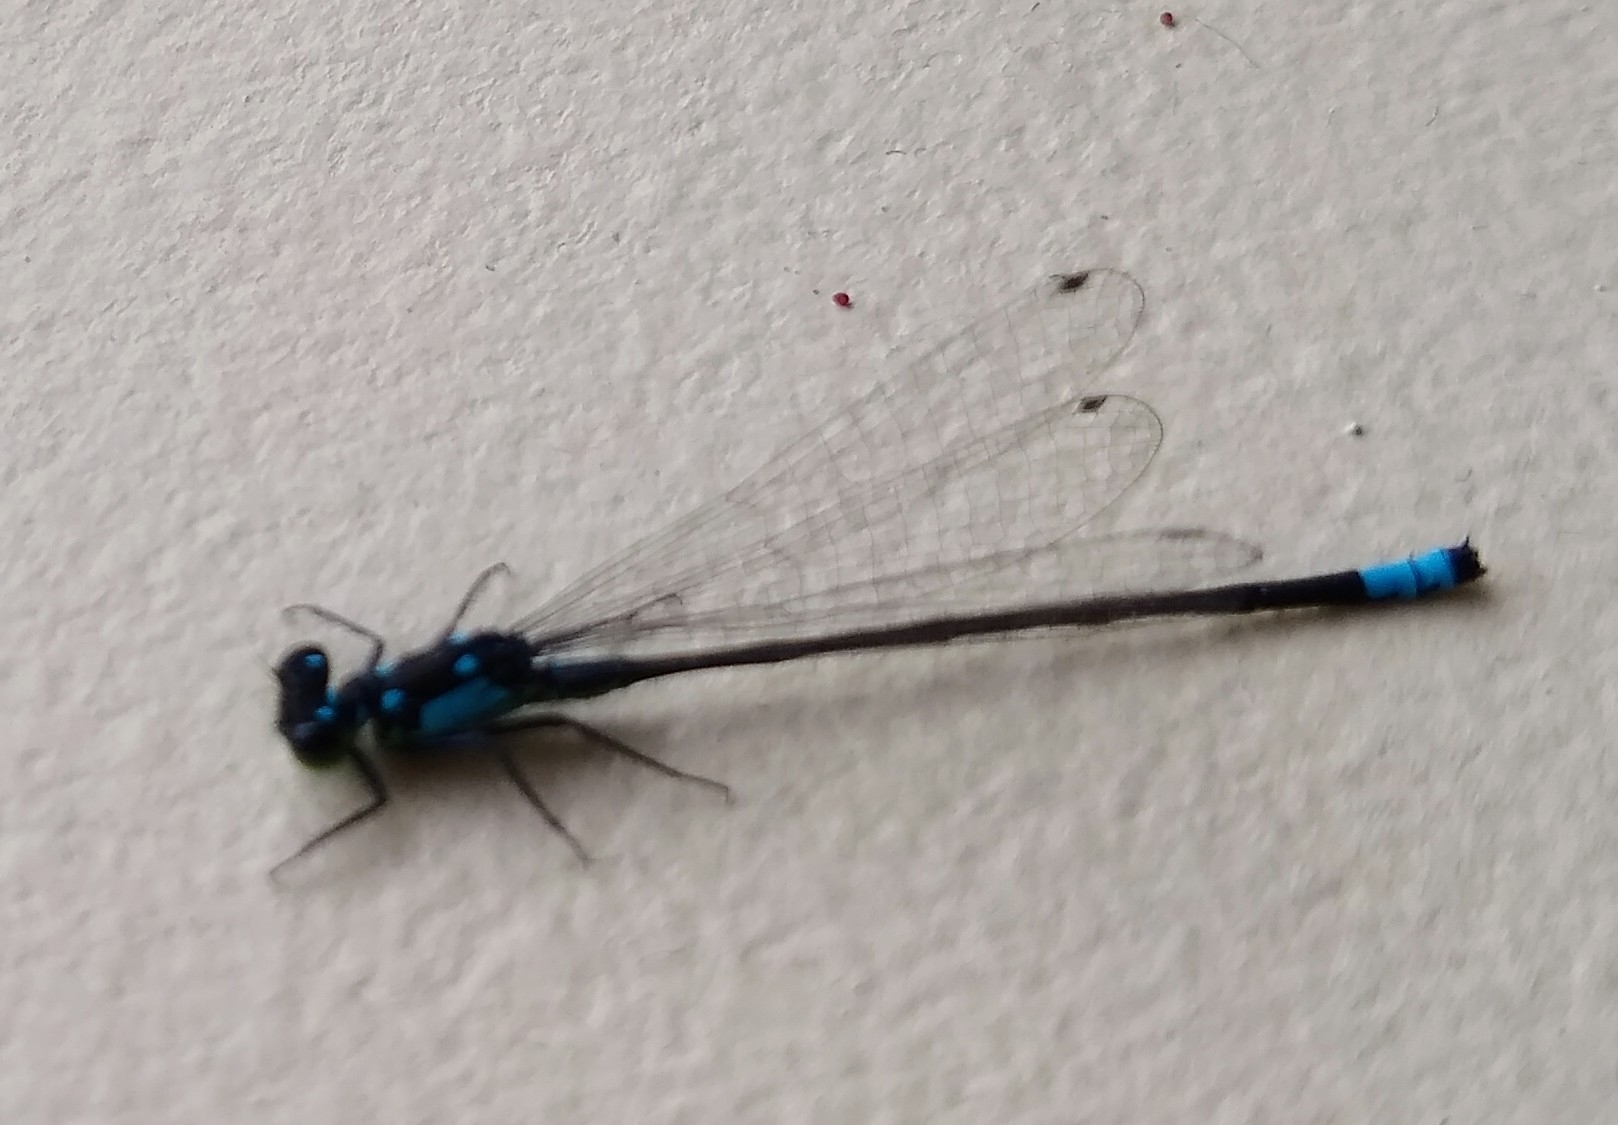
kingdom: Animalia
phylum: Arthropoda
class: Insecta
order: Odonata
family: Coenagrionidae
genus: Ischnura
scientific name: Ischnura cervula
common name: Pacific forktail
